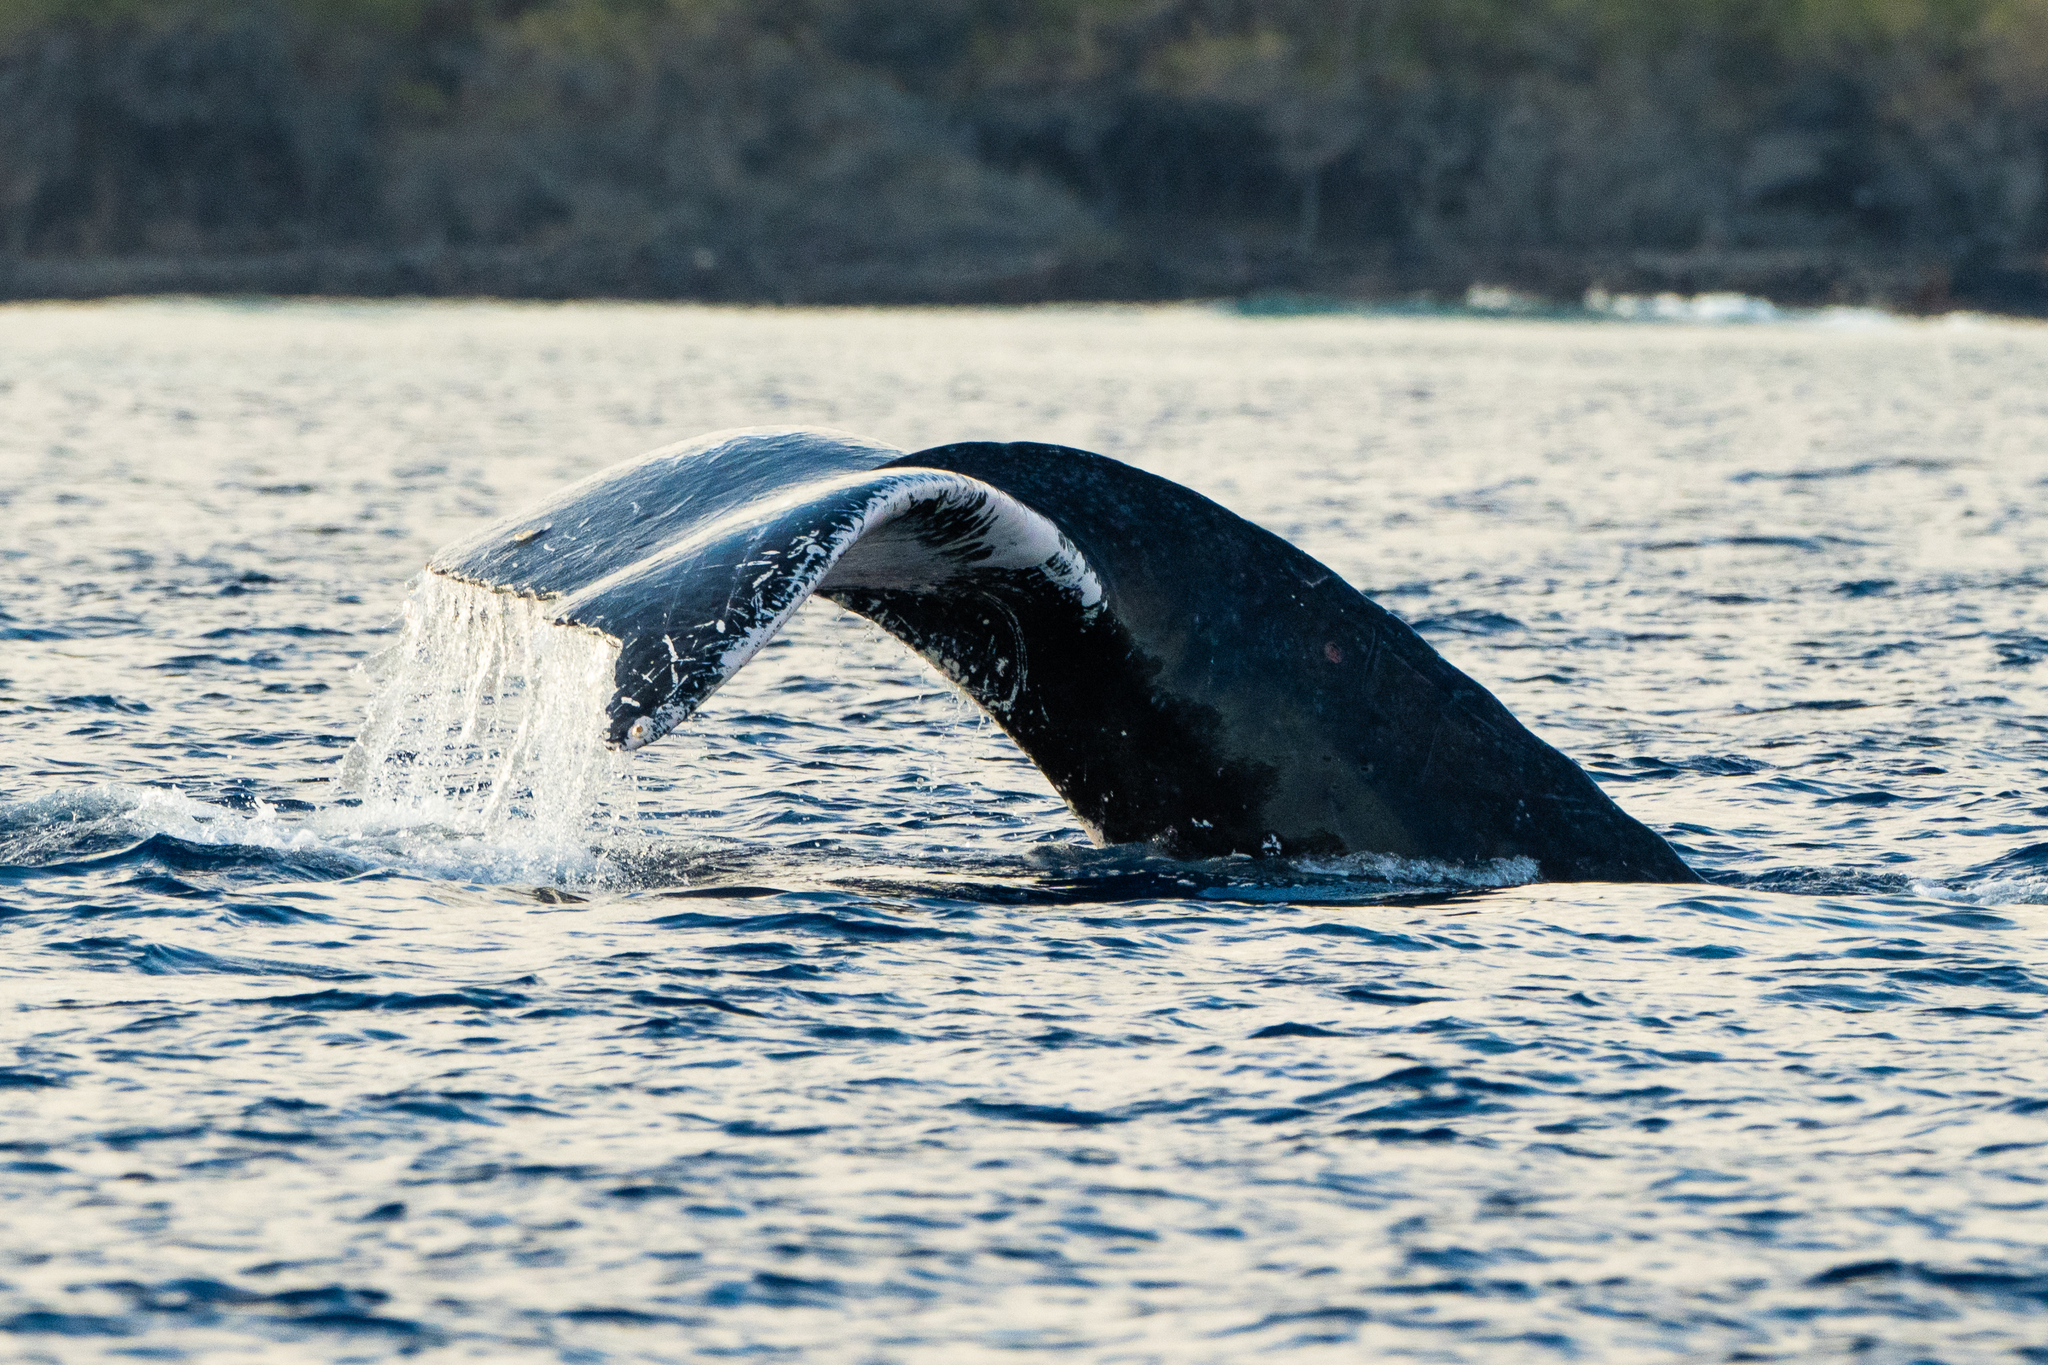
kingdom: Animalia
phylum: Chordata
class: Mammalia
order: Cetacea
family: Balaenopteridae
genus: Megaptera
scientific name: Megaptera novaeangliae
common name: Humpback whale
